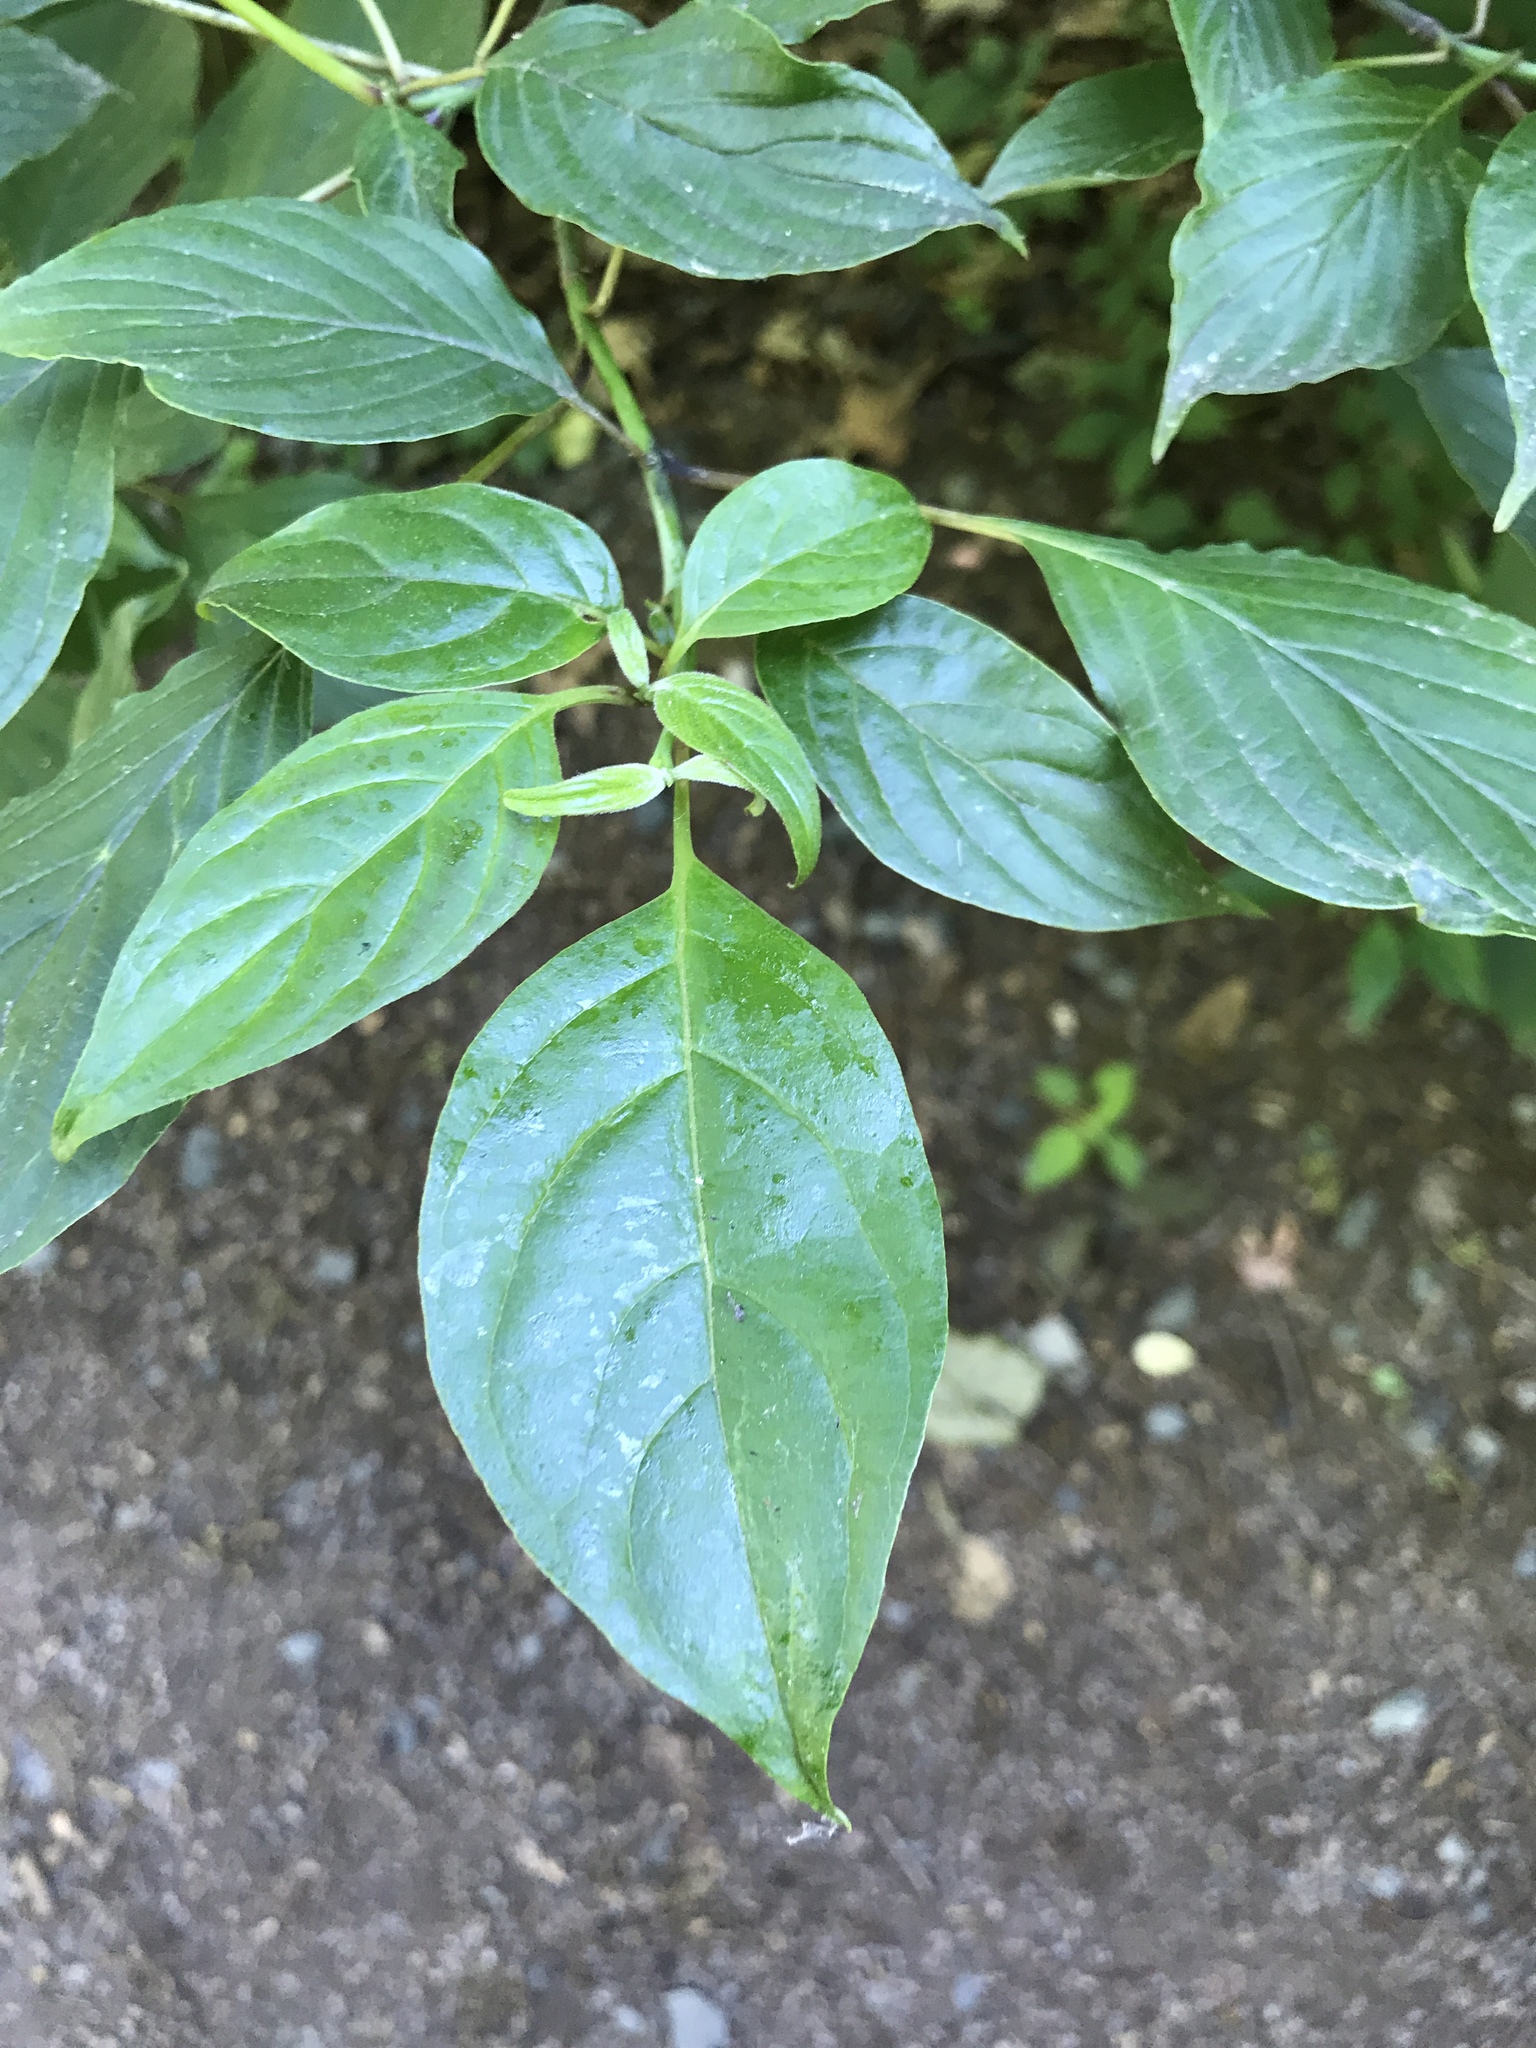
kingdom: Plantae
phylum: Tracheophyta
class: Magnoliopsida
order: Cornales
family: Cornaceae
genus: Cornus
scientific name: Cornus alternifolia
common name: Pagoda dogwood
